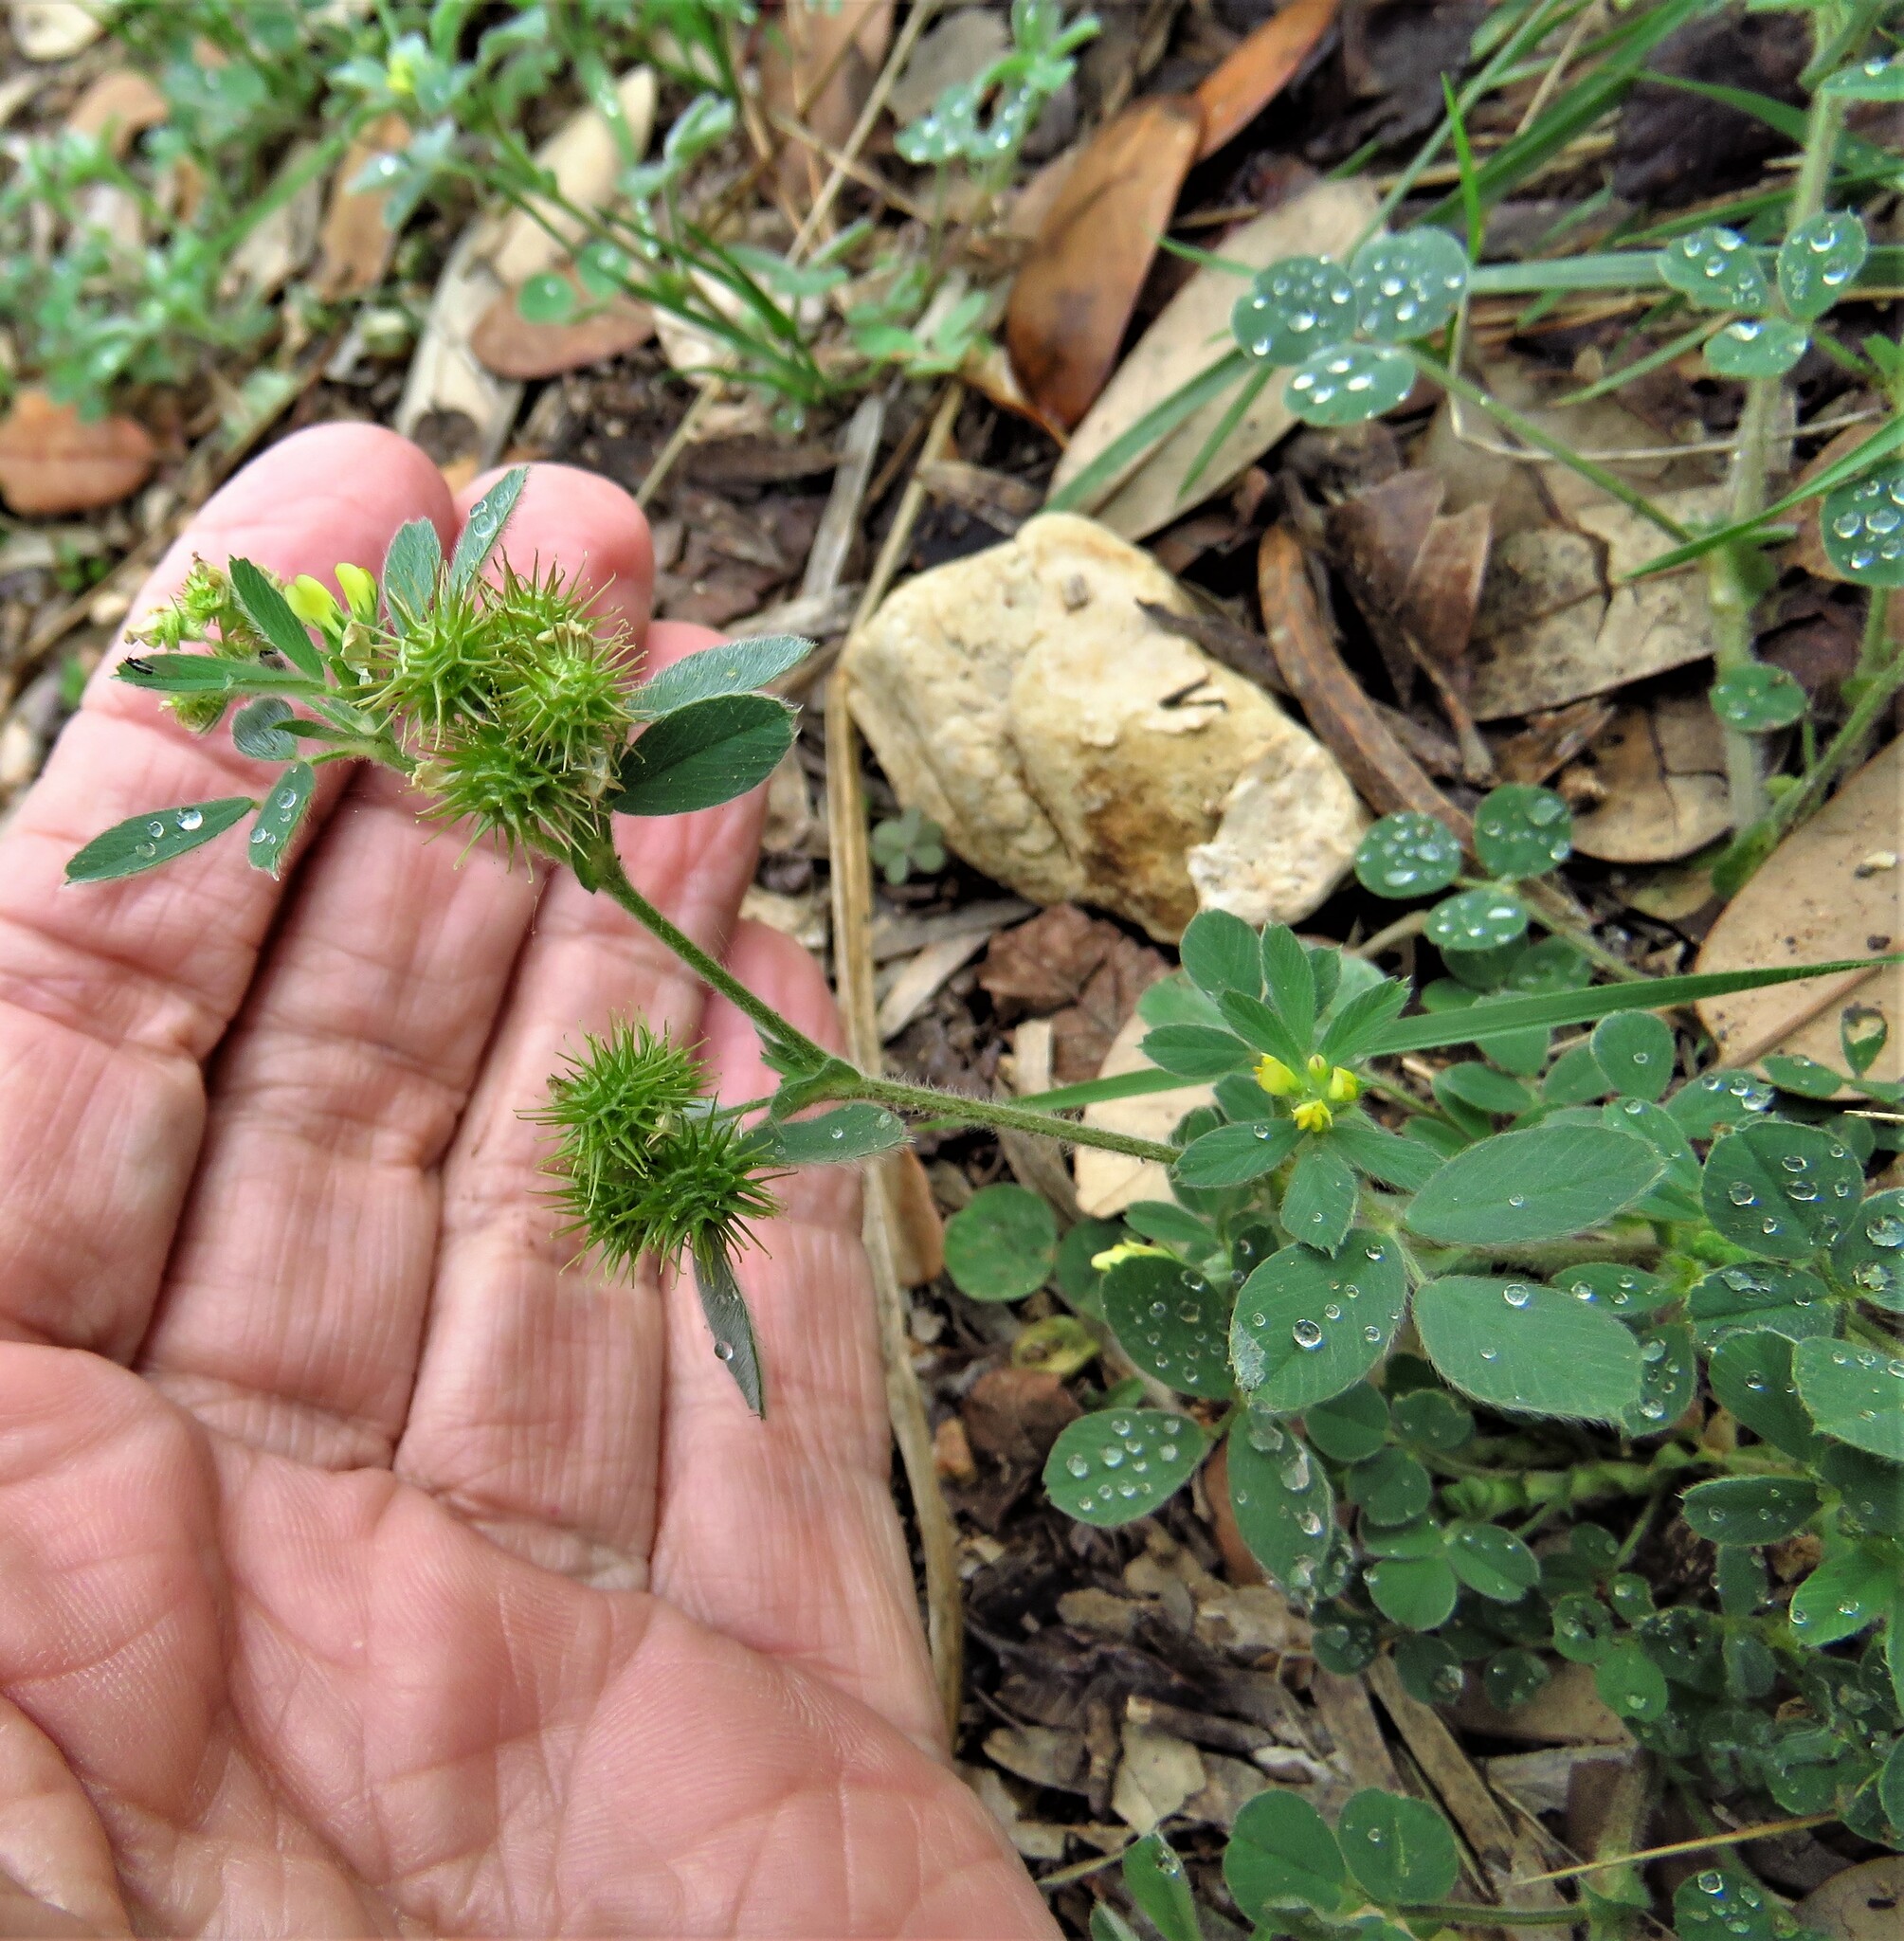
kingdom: Plantae
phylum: Tracheophyta
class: Magnoliopsida
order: Fabales
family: Fabaceae
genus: Medicago
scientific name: Medicago minima
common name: Little bur-clover
